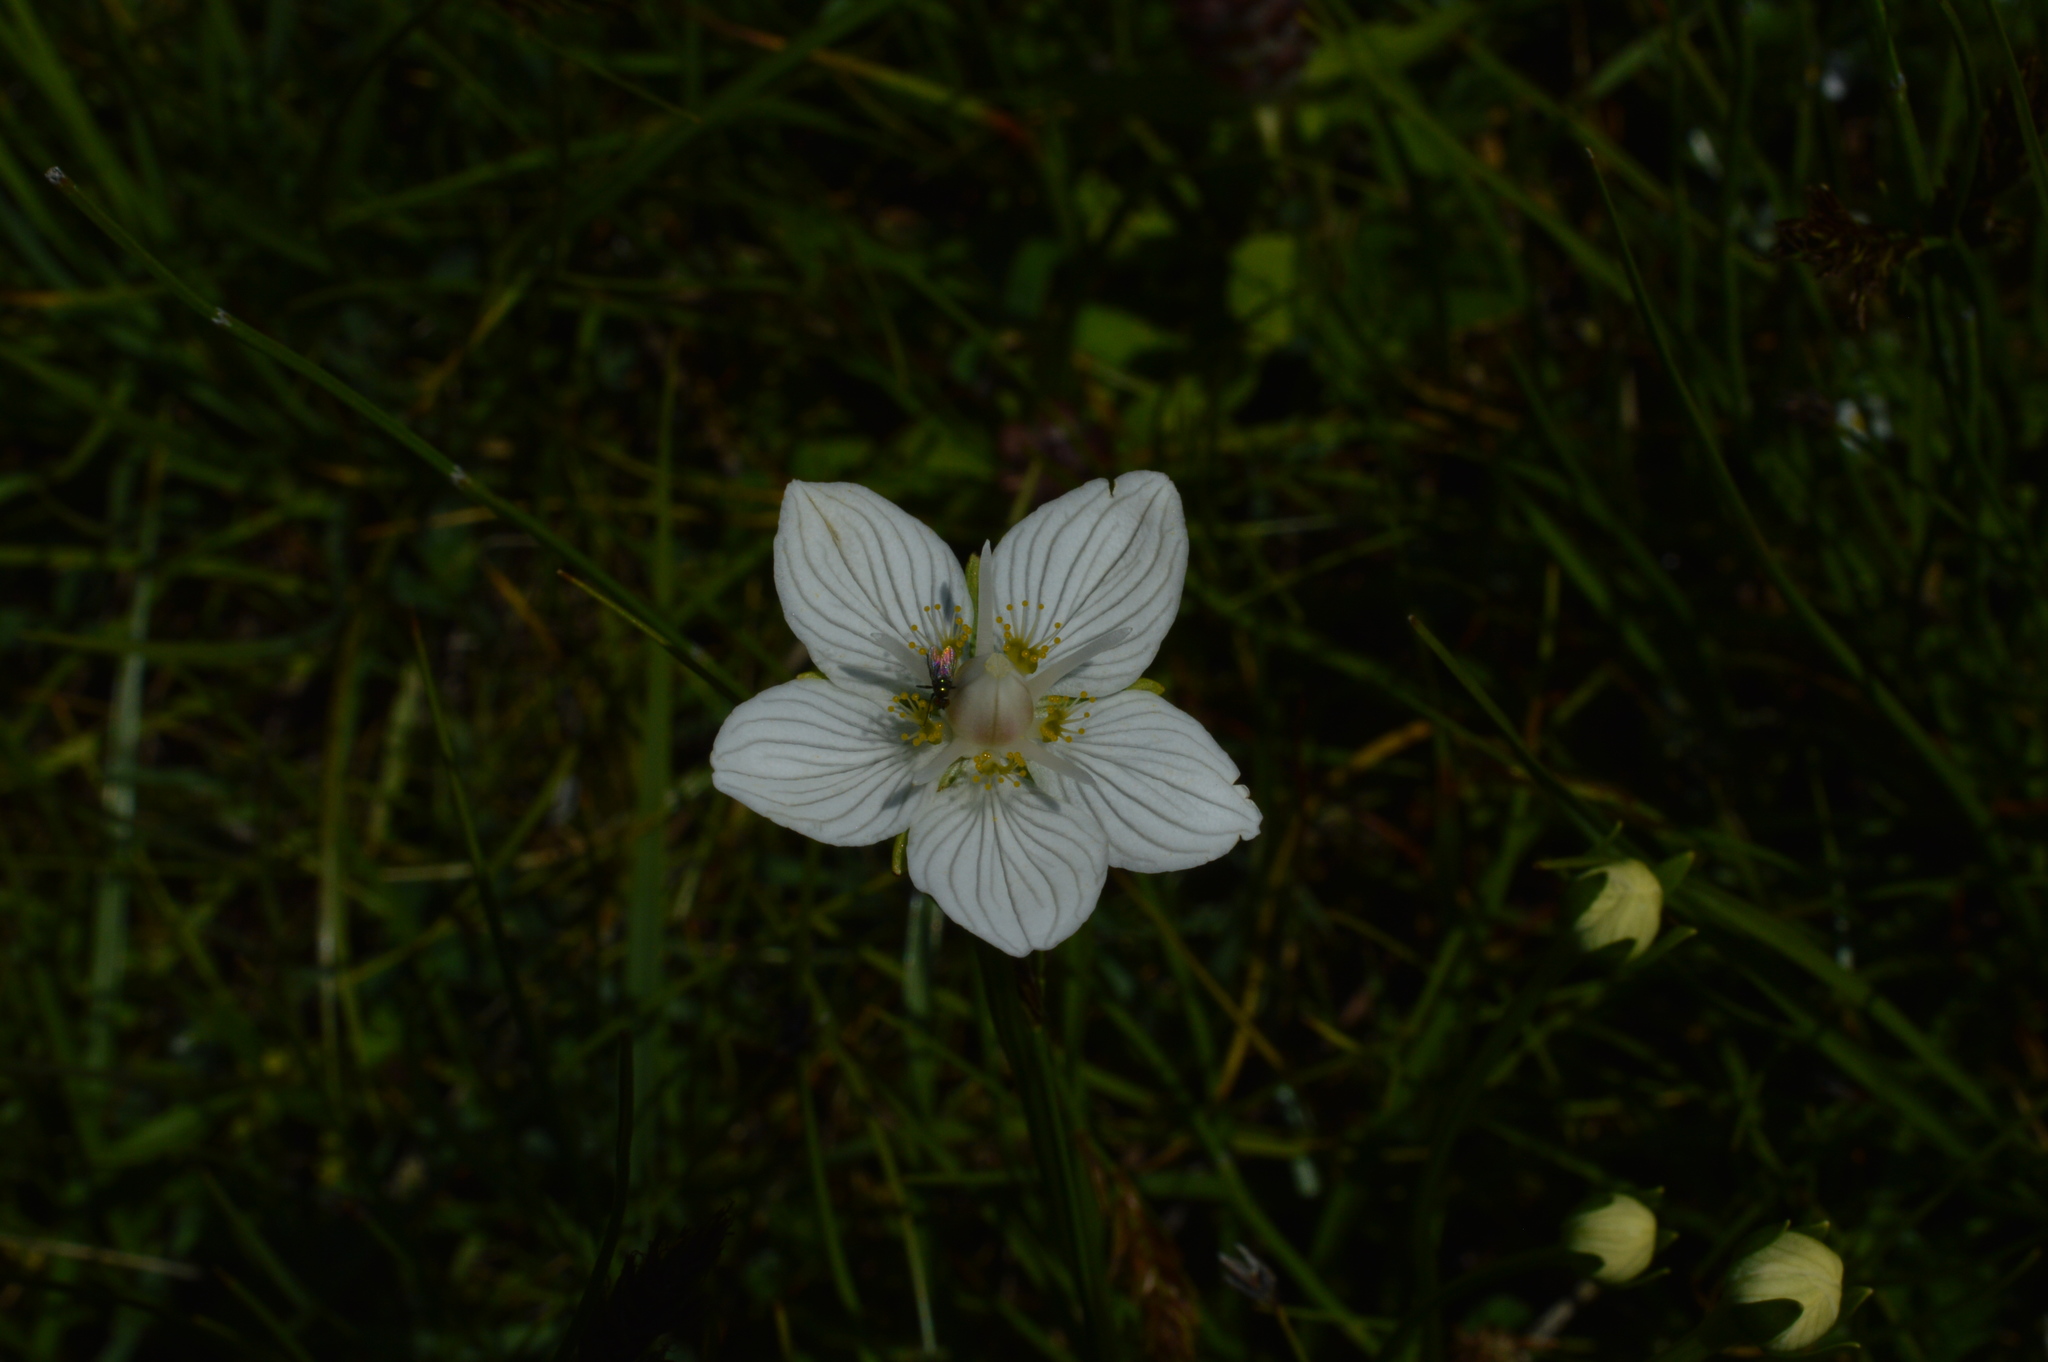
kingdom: Plantae
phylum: Tracheophyta
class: Magnoliopsida
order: Celastrales
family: Parnassiaceae
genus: Parnassia
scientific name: Parnassia palustris
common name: Grass-of-parnassus
